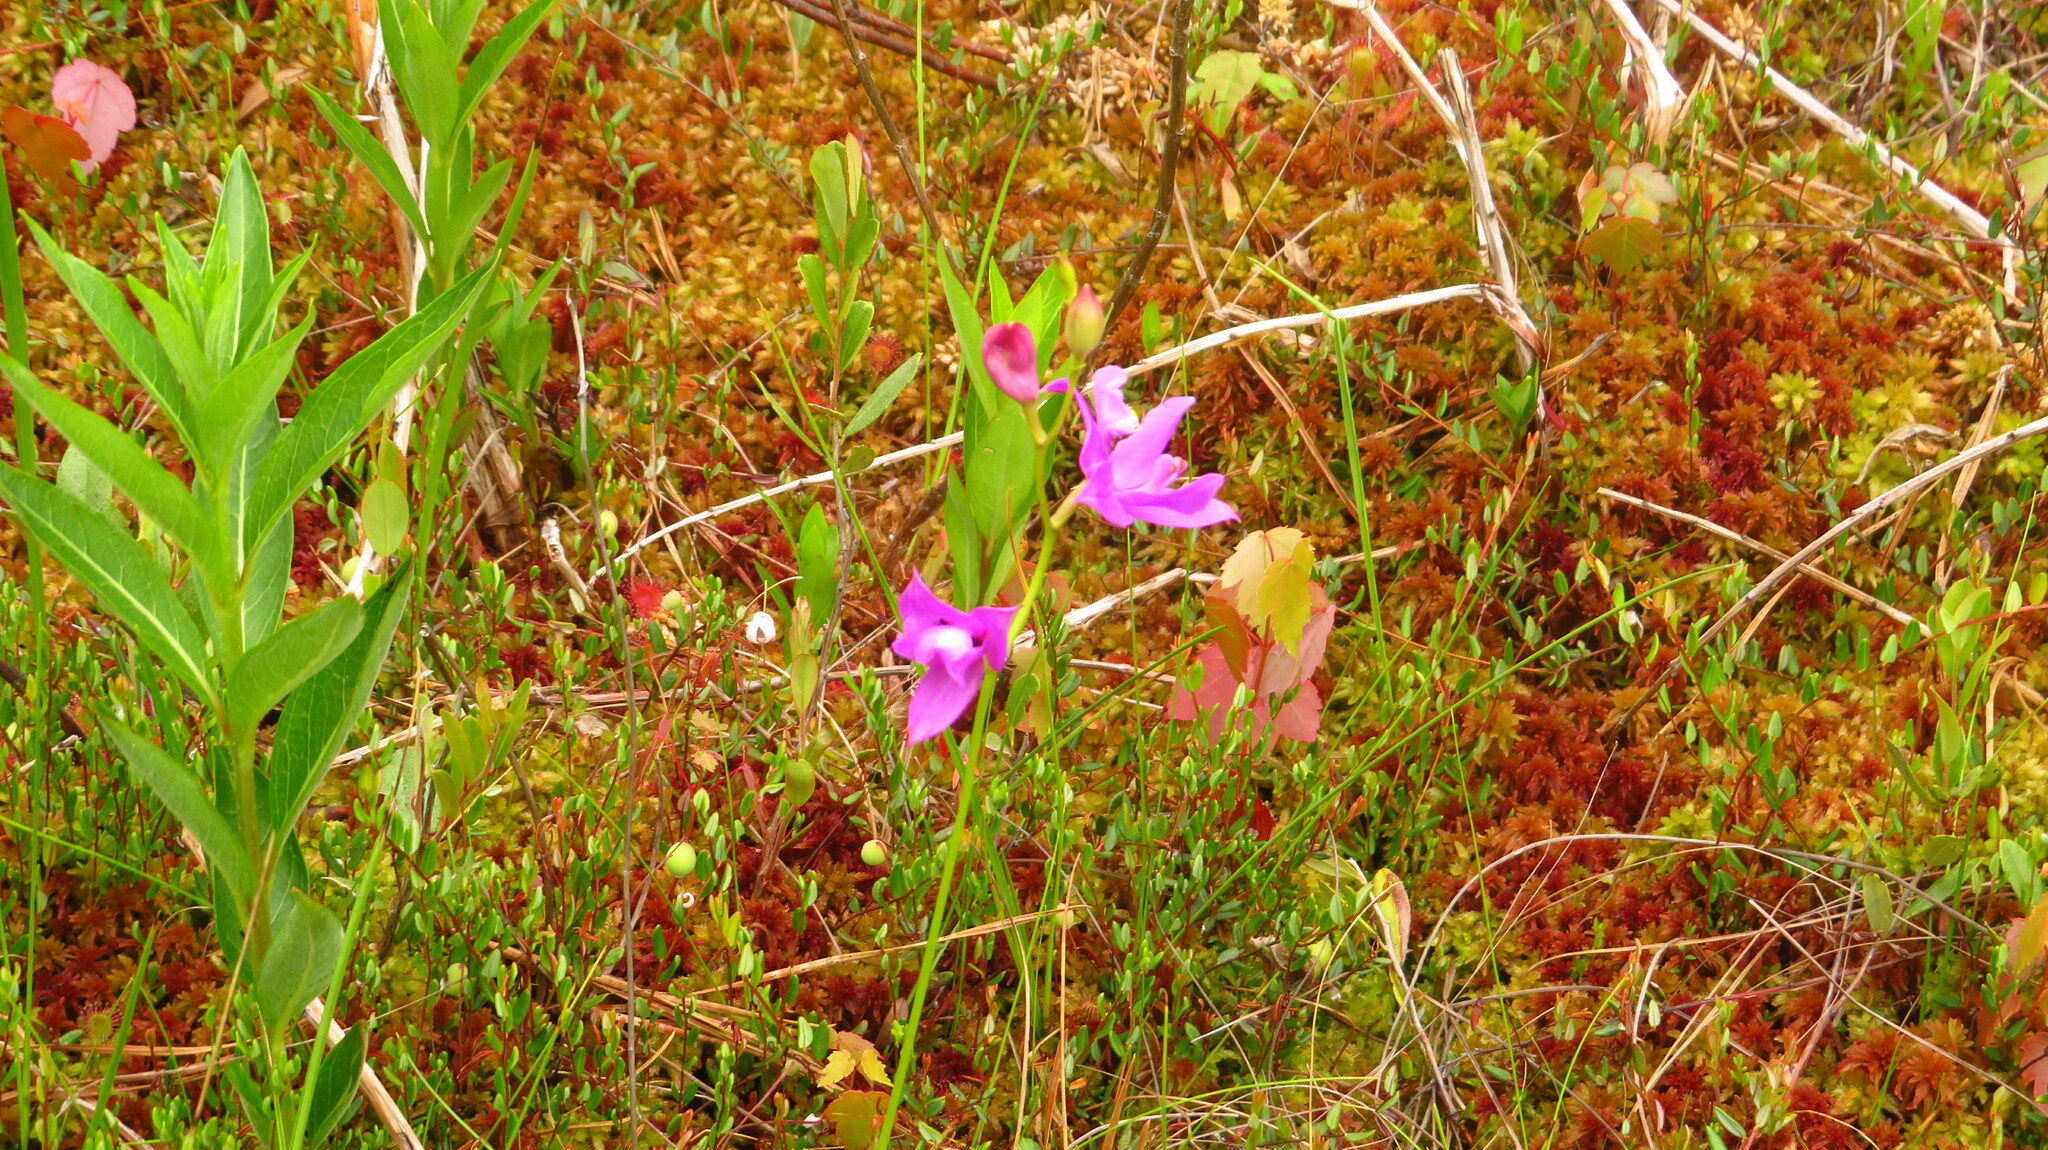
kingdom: Plantae
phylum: Tracheophyta
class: Liliopsida
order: Asparagales
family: Orchidaceae
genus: Calopogon
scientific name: Calopogon tuberosus
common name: Grass-pink
